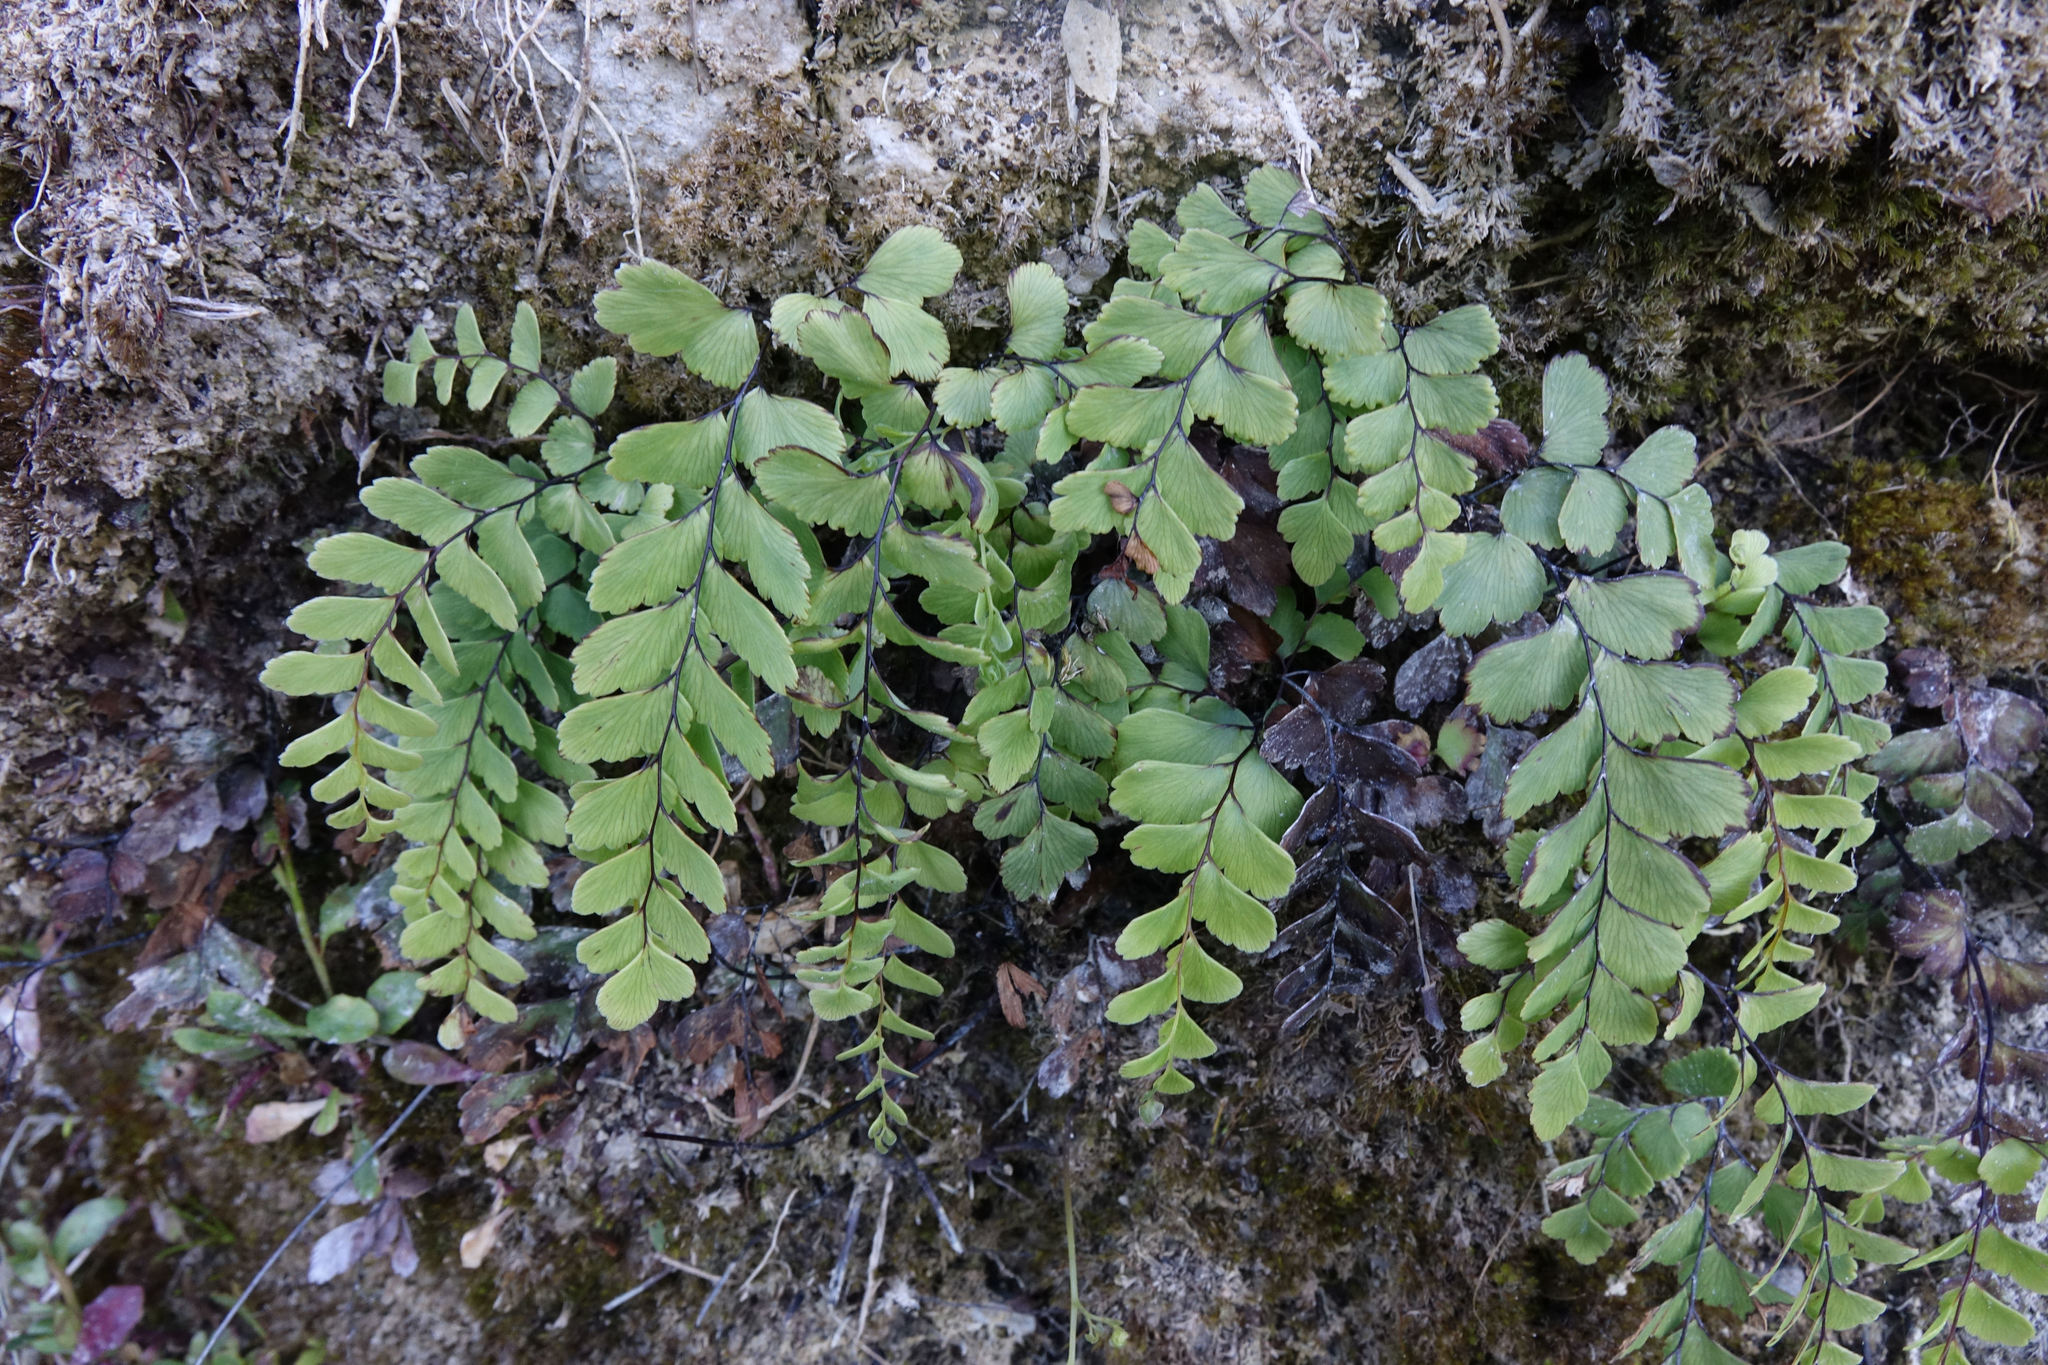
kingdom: Plantae
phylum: Tracheophyta
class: Polypodiopsida
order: Polypodiales
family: Pteridaceae
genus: Adiantum
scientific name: Adiantum cunninghamii
